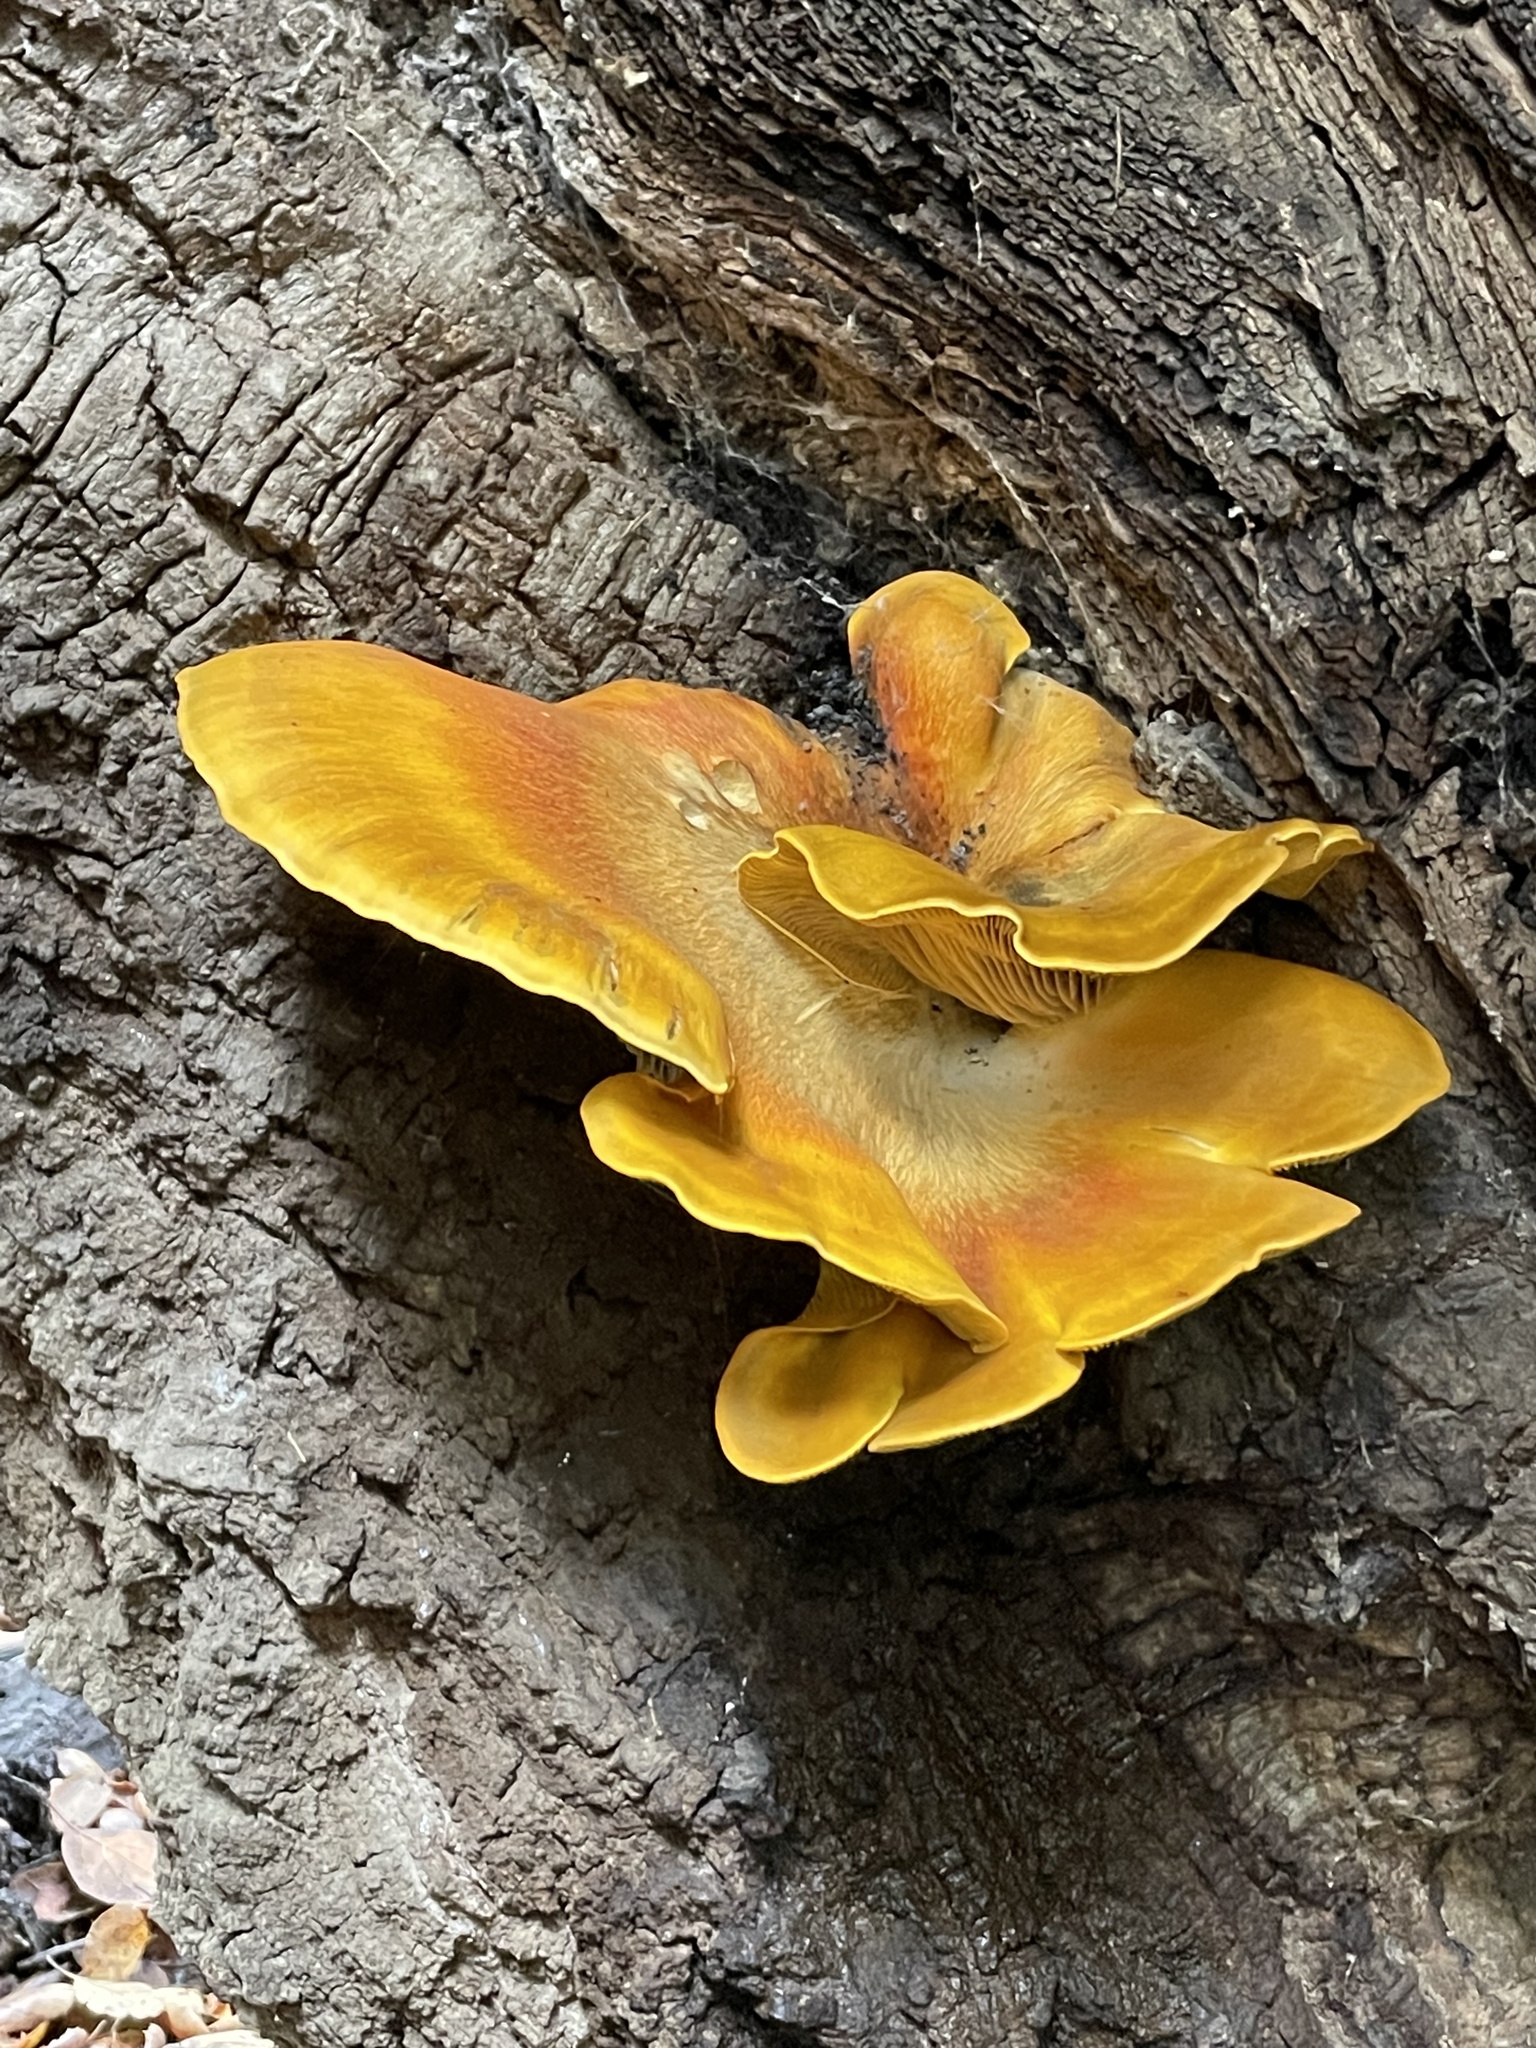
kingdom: Fungi
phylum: Basidiomycota
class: Agaricomycetes
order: Agaricales
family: Omphalotaceae
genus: Omphalotus
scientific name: Omphalotus olivascens
